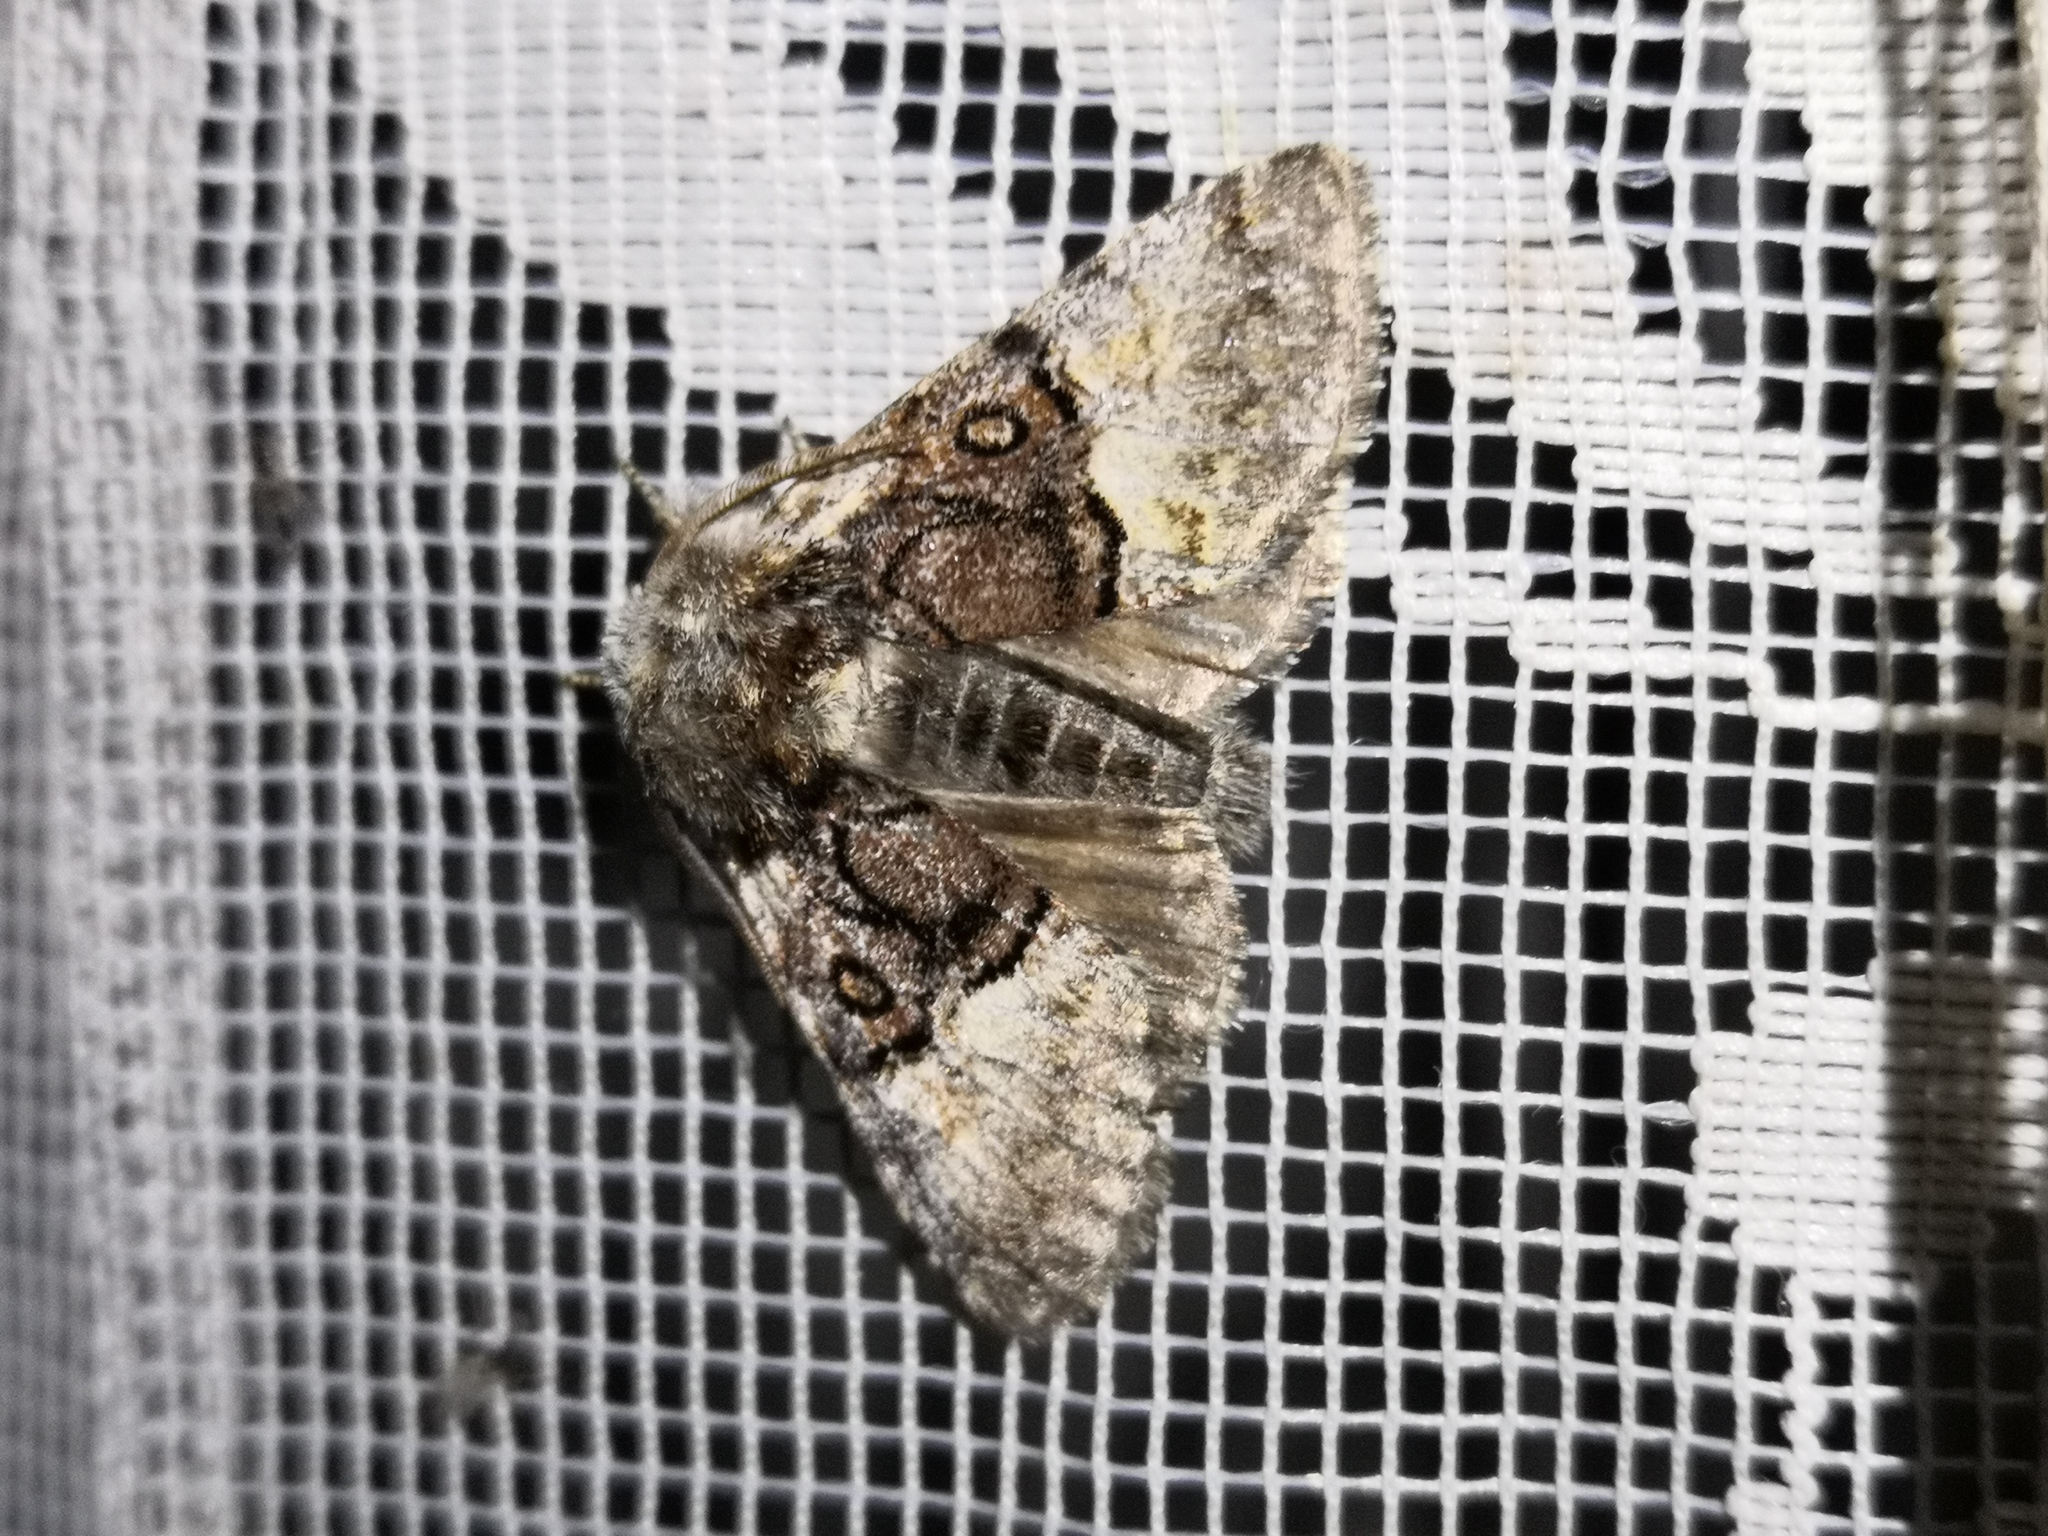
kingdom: Animalia
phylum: Arthropoda
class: Insecta
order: Lepidoptera
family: Noctuidae
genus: Colocasia
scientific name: Colocasia coryli
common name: Nut-tree tussock
